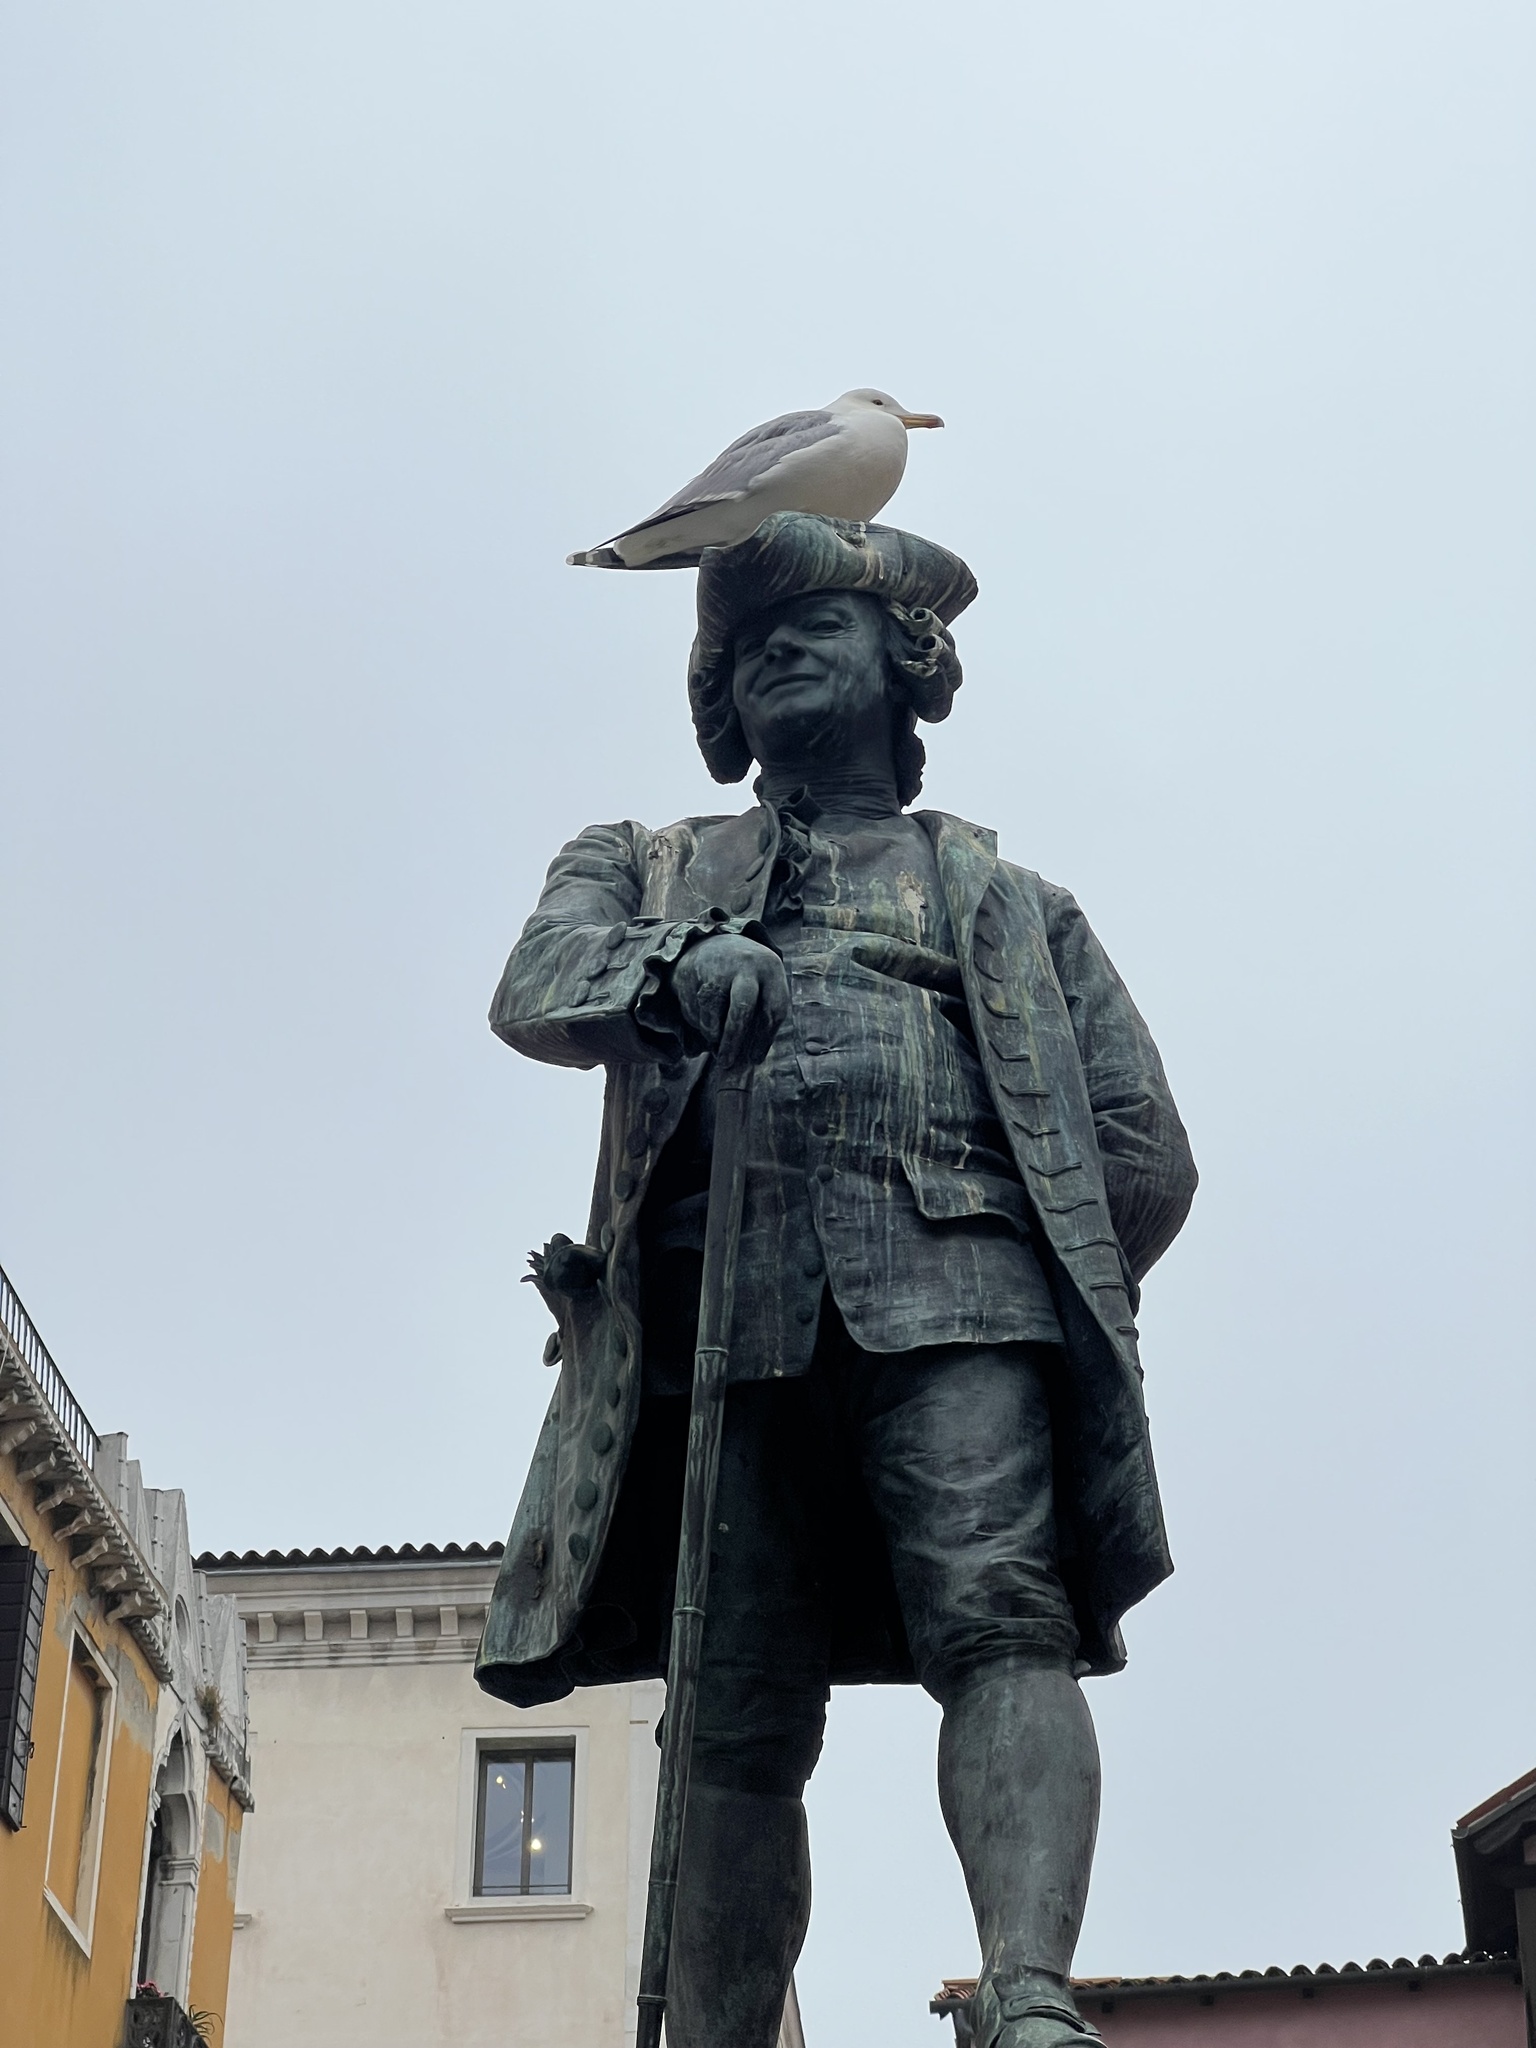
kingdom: Animalia
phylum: Chordata
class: Aves
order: Charadriiformes
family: Laridae
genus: Larus
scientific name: Larus michahellis
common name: Yellow-legged gull
